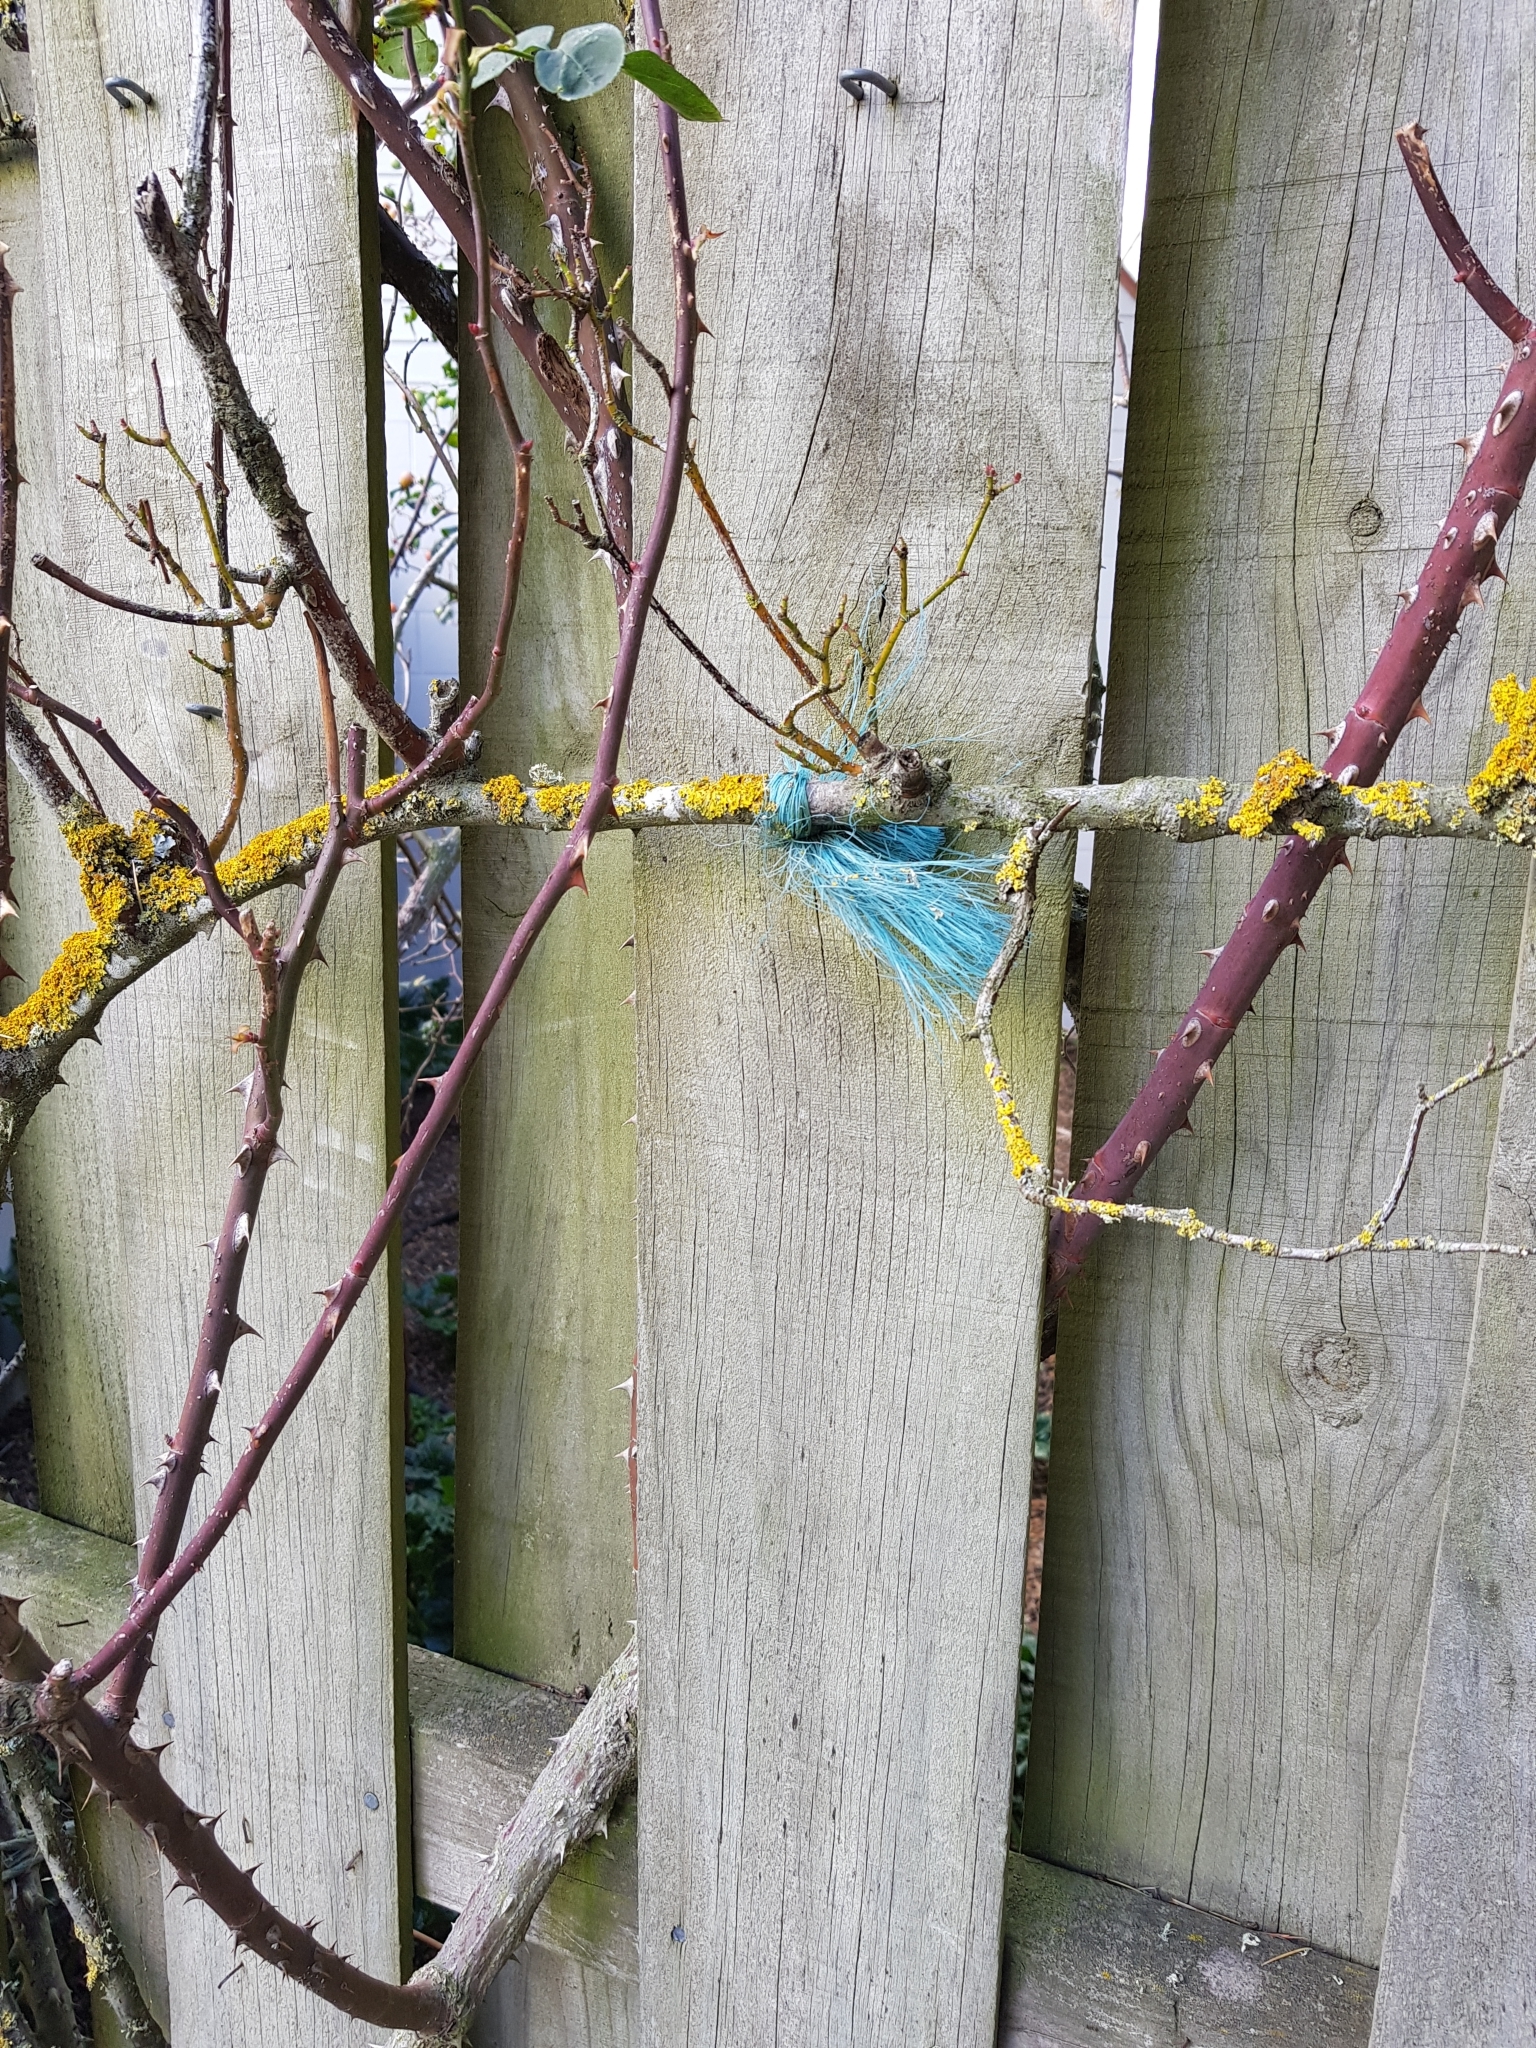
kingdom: Fungi
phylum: Ascomycota
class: Lecanoromycetes
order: Teloschistales
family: Teloschistaceae
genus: Xanthoria
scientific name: Xanthoria parietina
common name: Common orange lichen
